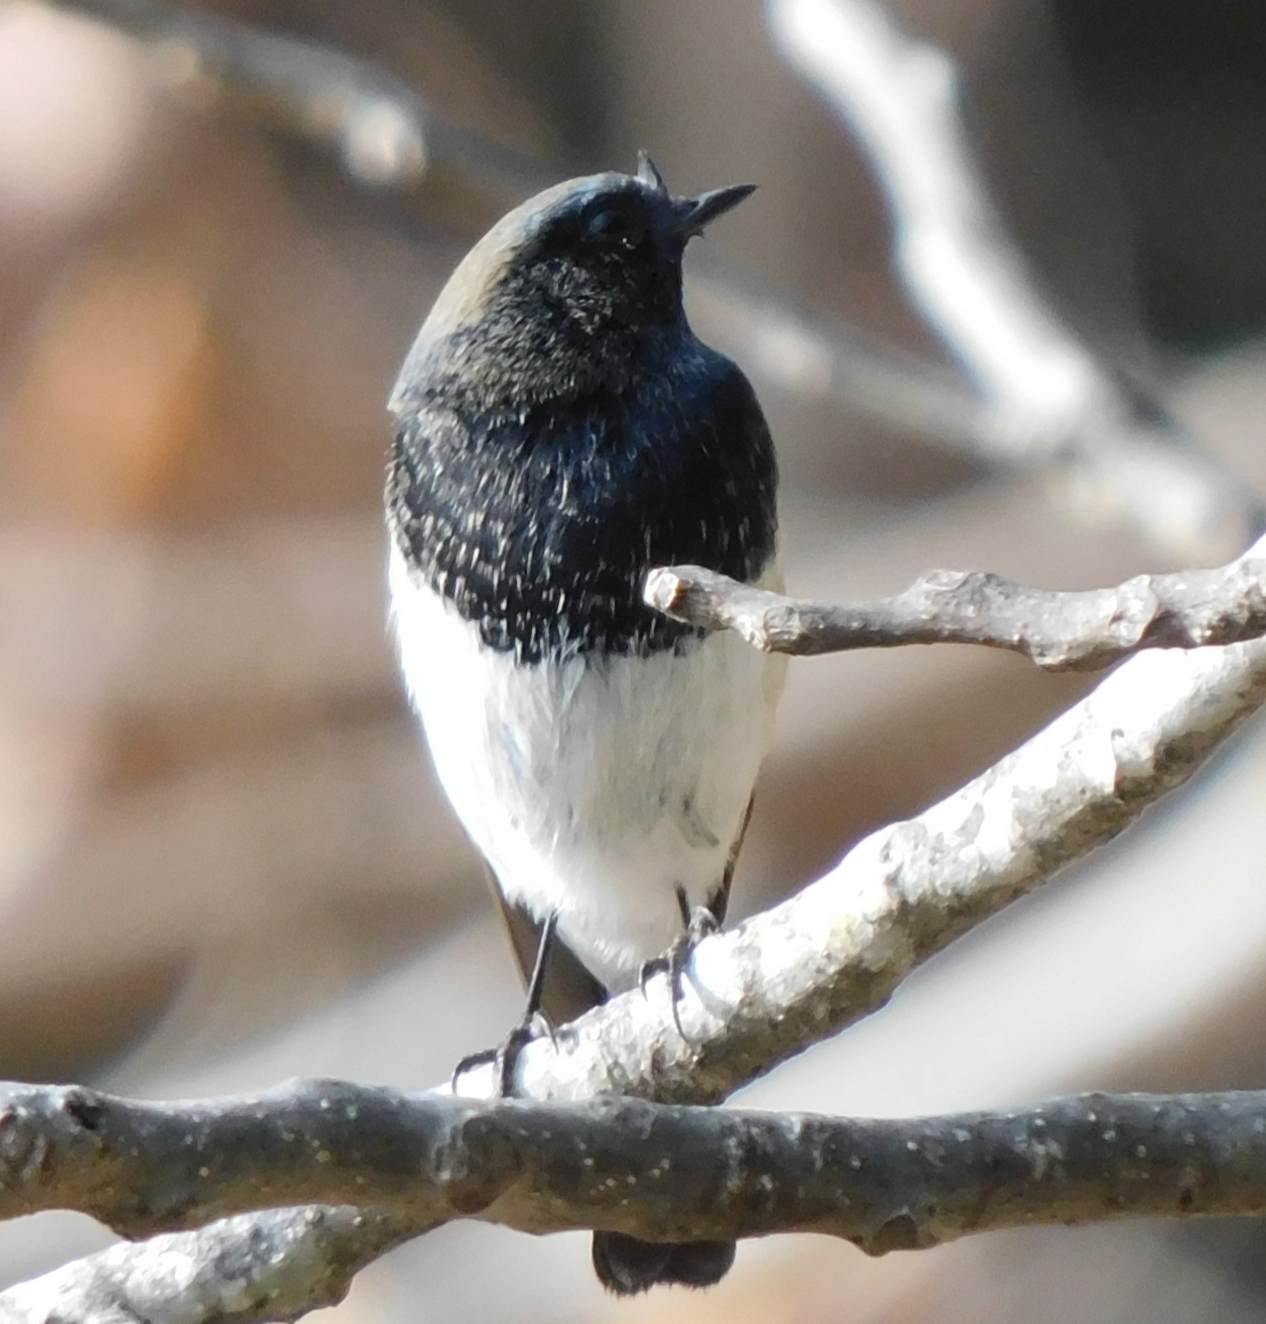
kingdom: Animalia
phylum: Chordata
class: Aves
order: Passeriformes
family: Muscicapidae
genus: Phoenicurus
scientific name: Phoenicurus coeruleocephala
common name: Blue-capped redstart
